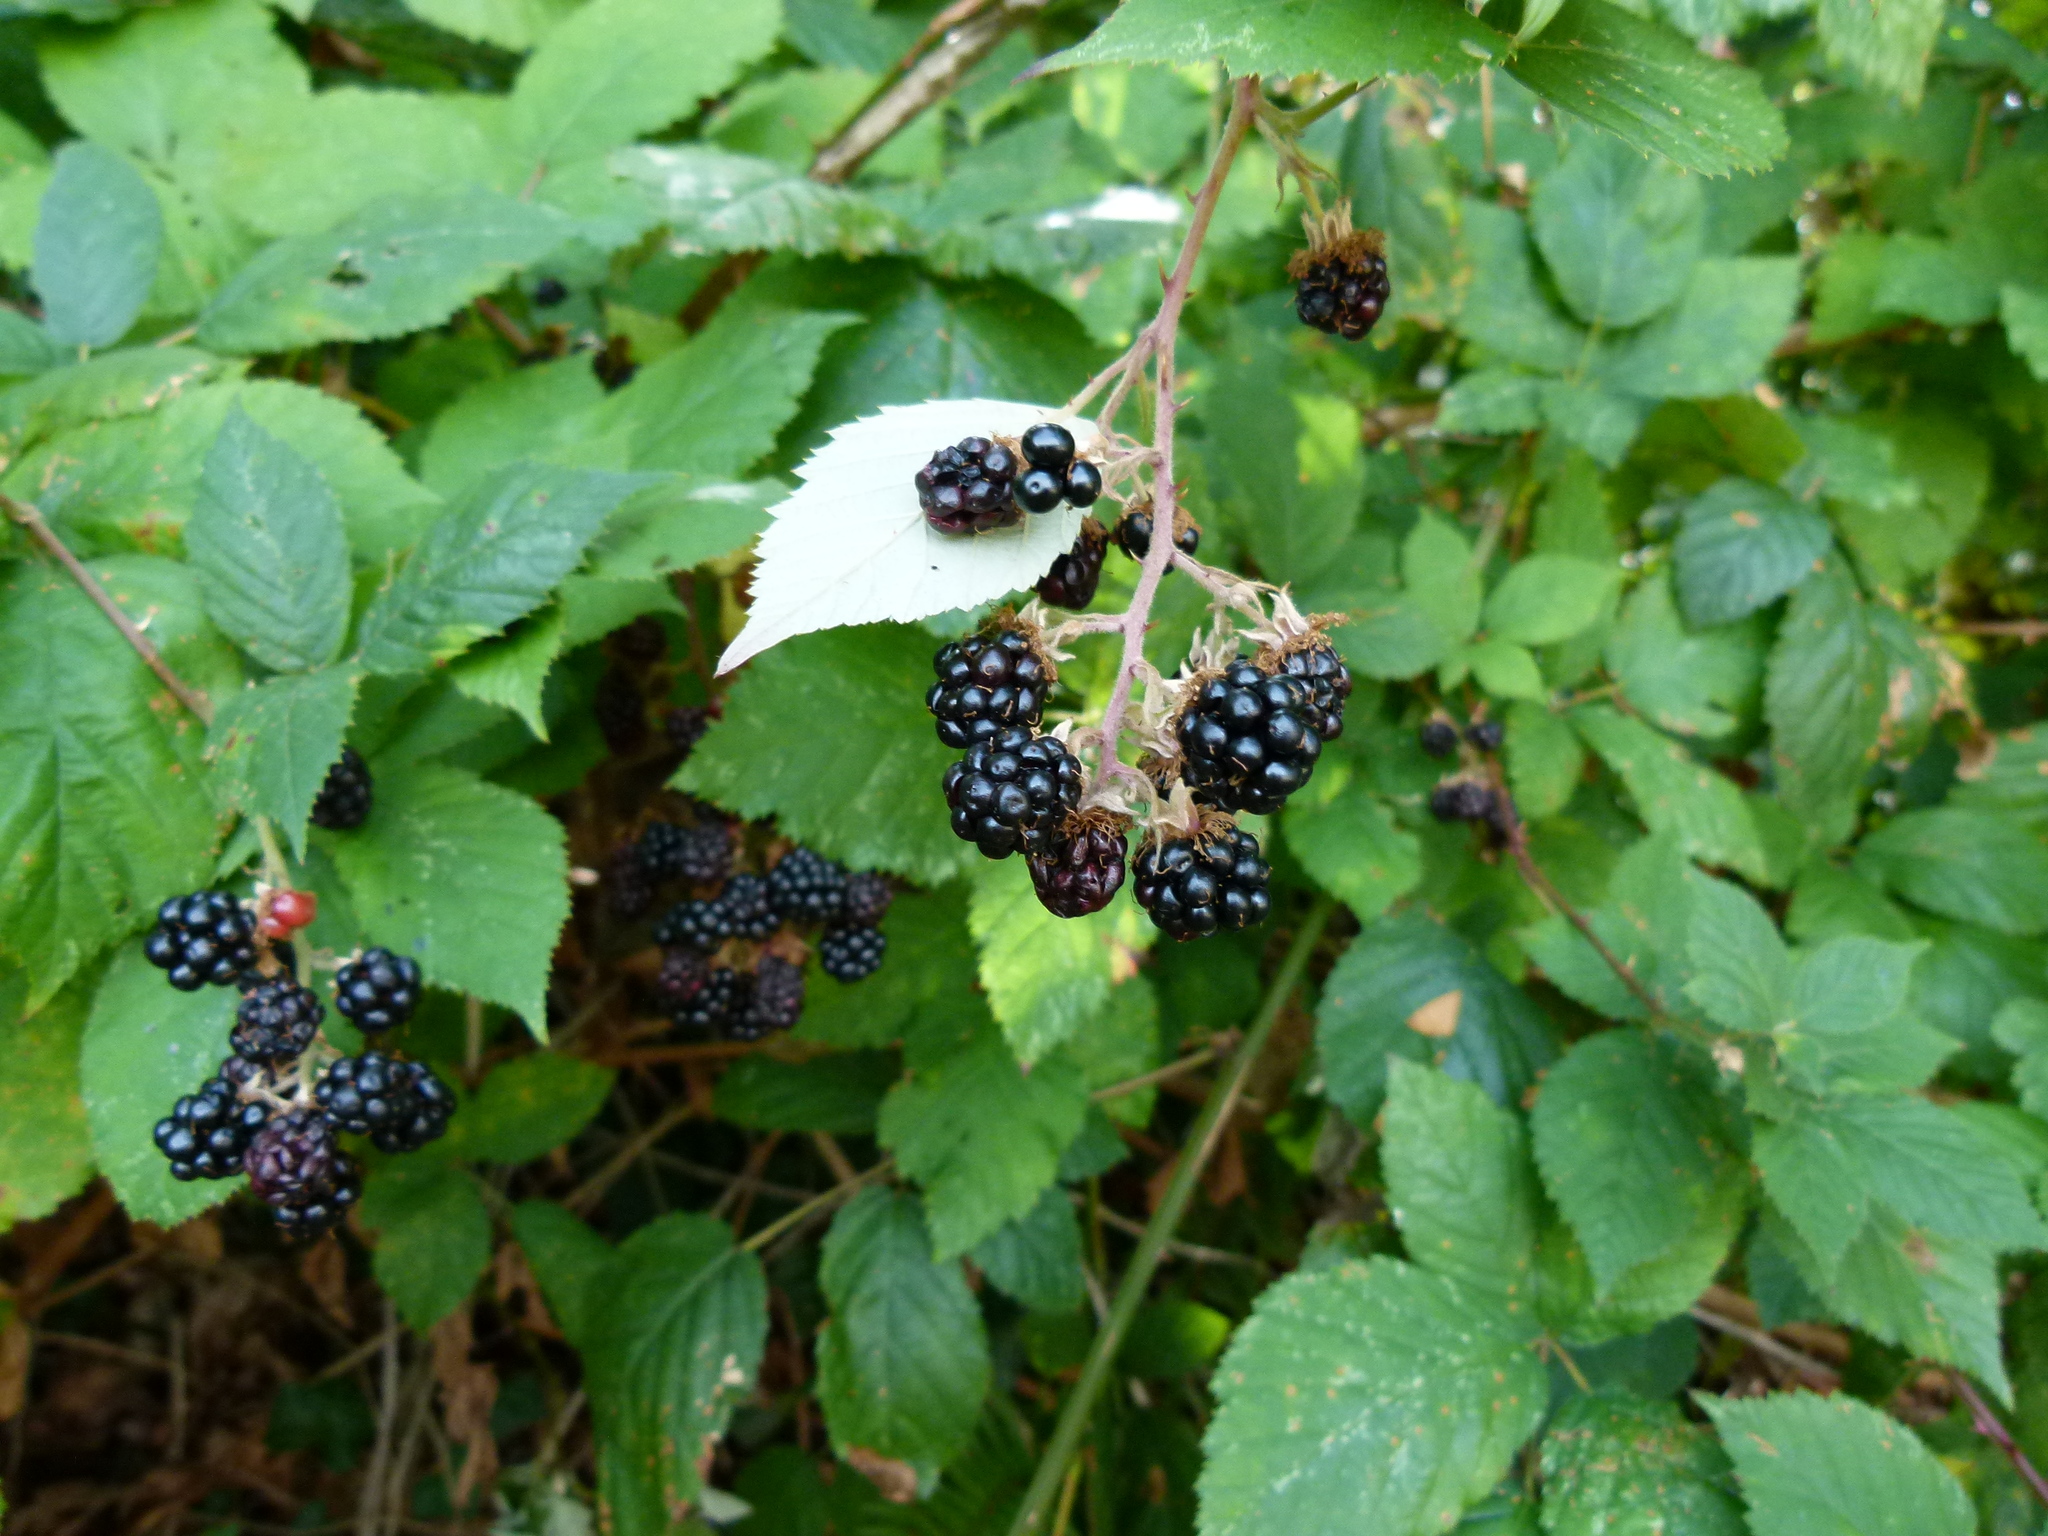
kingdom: Plantae
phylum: Tracheophyta
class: Magnoliopsida
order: Rosales
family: Rosaceae
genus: Rubus
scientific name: Rubus armeniacus
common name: Himalayan blackberry
